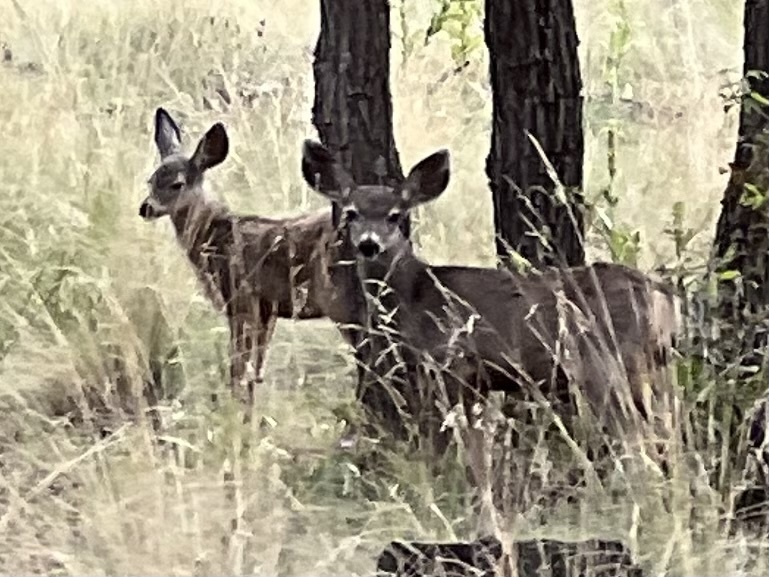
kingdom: Animalia
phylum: Chordata
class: Mammalia
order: Artiodactyla
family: Cervidae
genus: Odocoileus
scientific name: Odocoileus hemionus
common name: Mule deer
